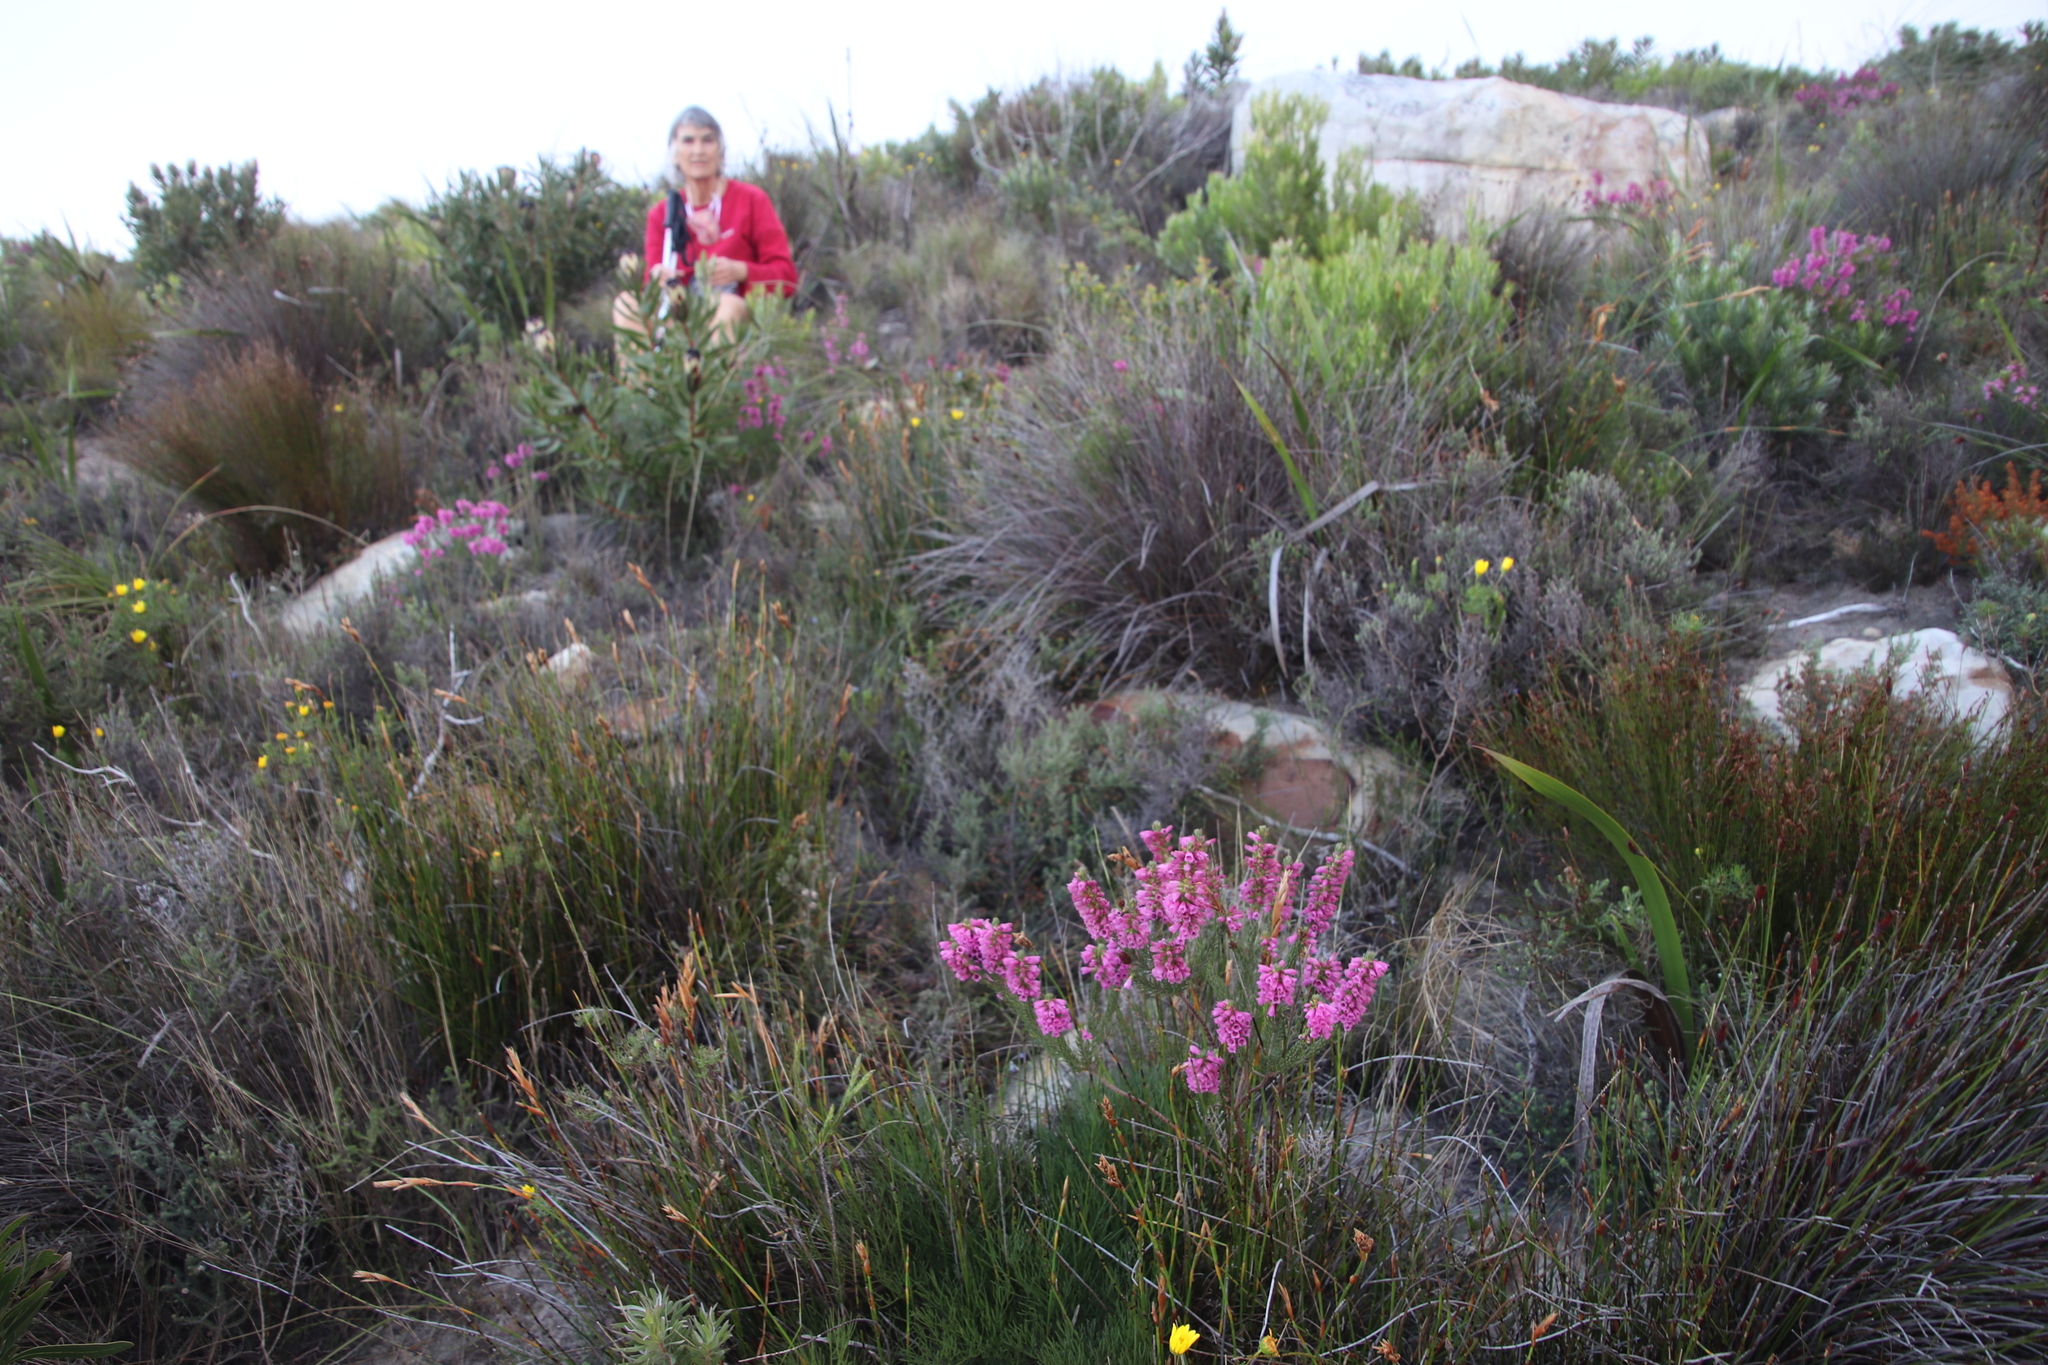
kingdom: Plantae
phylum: Tracheophyta
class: Magnoliopsida
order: Ericales
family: Ericaceae
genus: Erica
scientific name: Erica abietina
